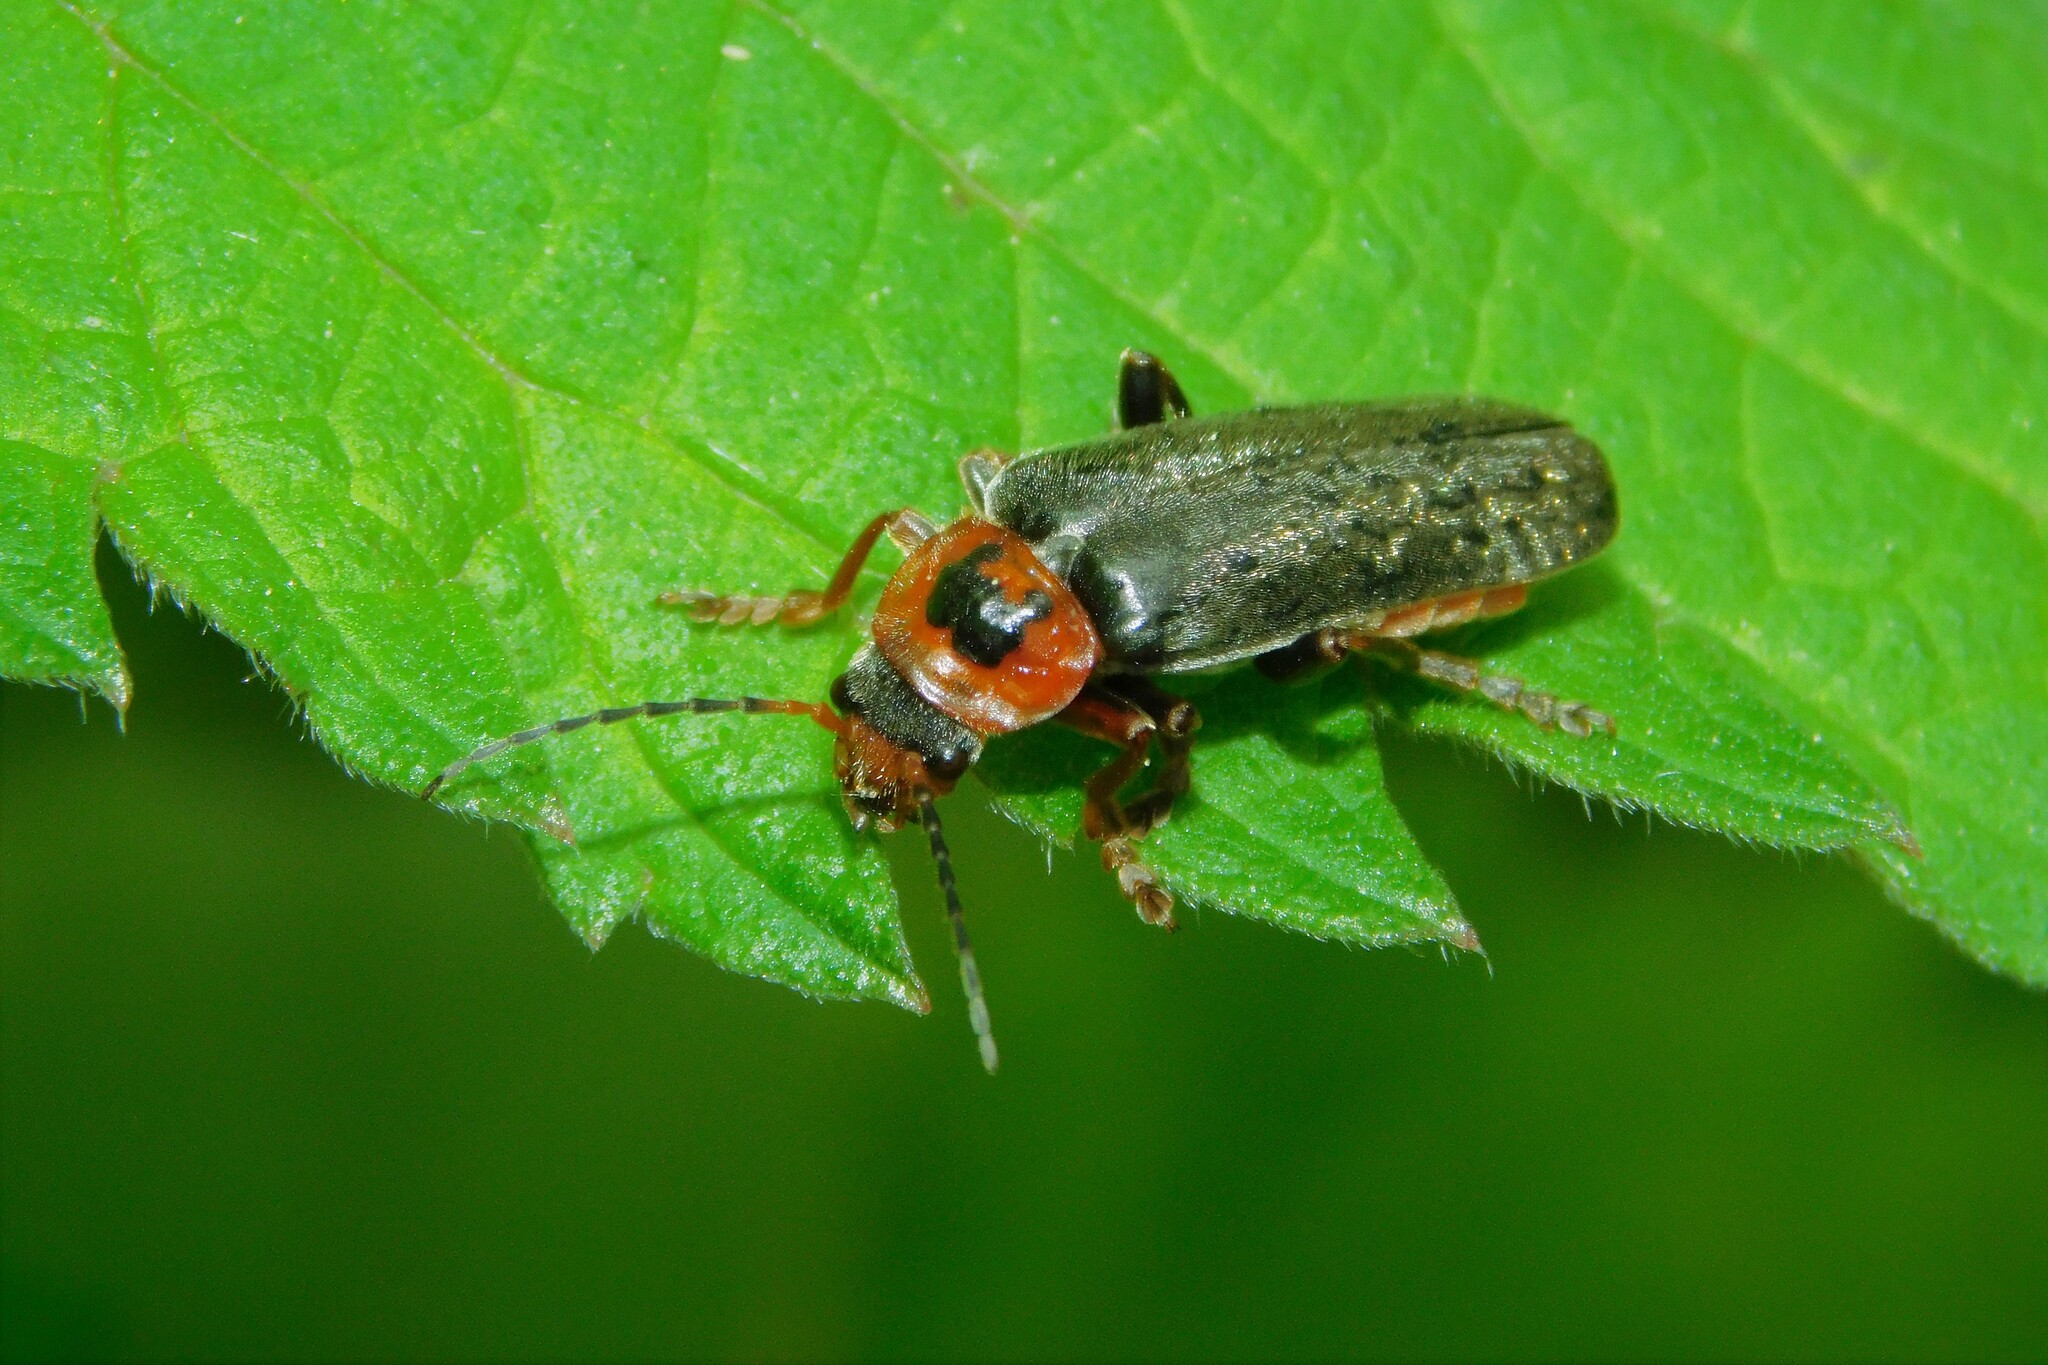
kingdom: Animalia
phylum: Arthropoda
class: Insecta
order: Coleoptera
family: Cantharidae
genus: Cantharis
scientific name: Cantharis annularis
